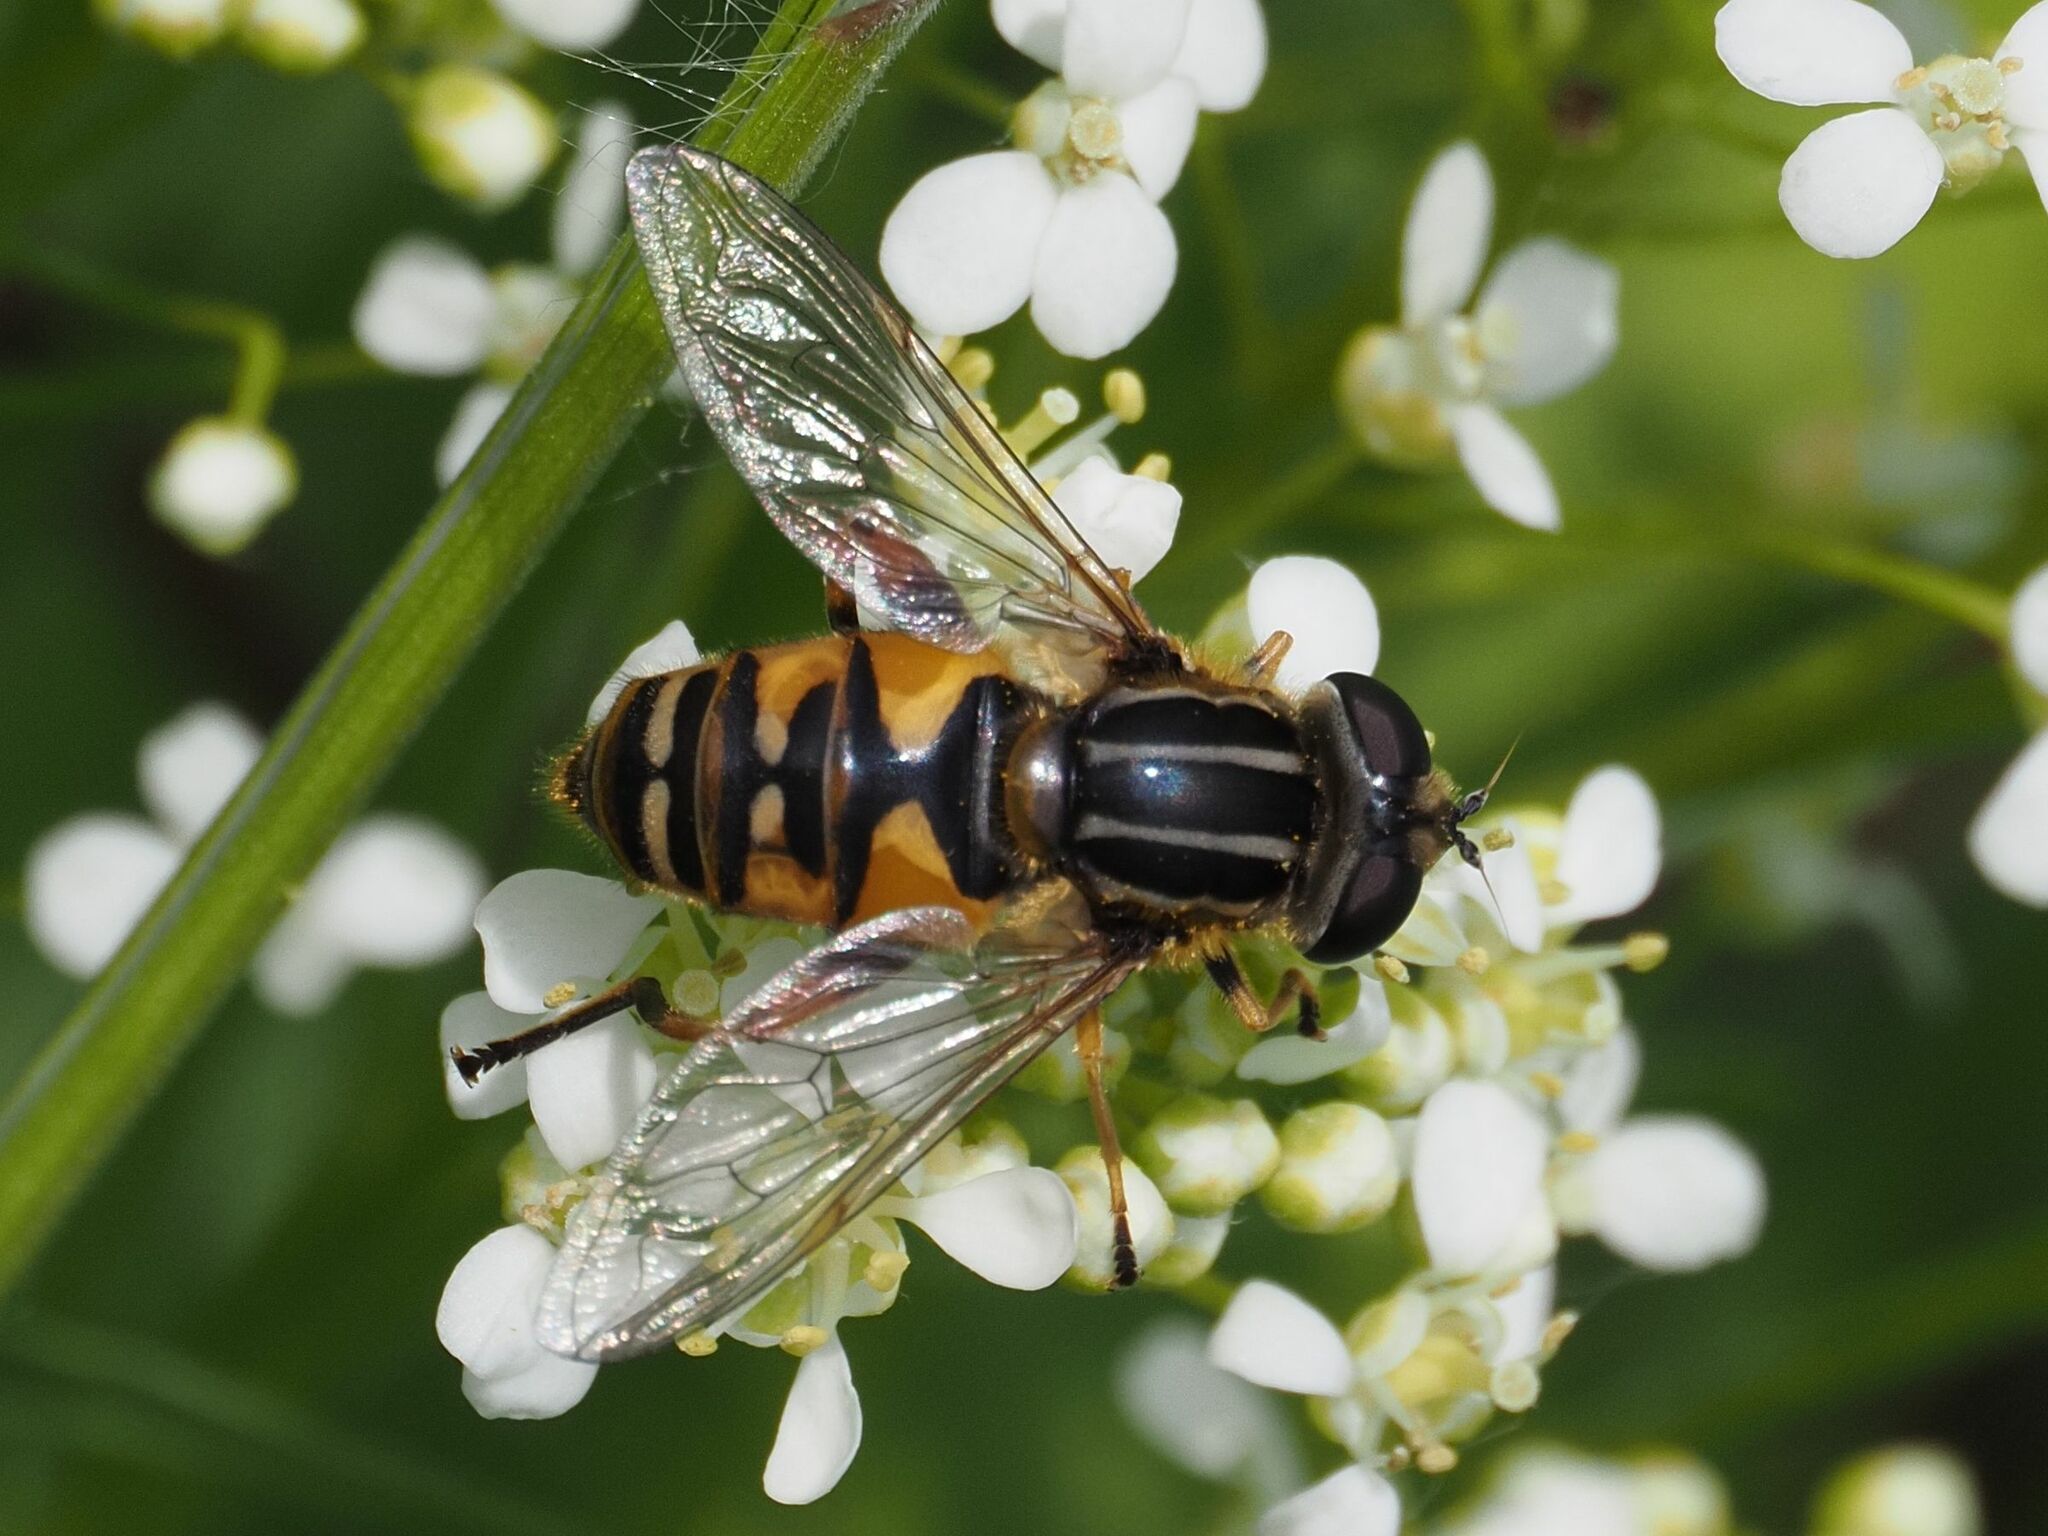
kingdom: Animalia
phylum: Arthropoda
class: Insecta
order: Diptera
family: Syrphidae
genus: Helophilus
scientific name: Helophilus pendulus
